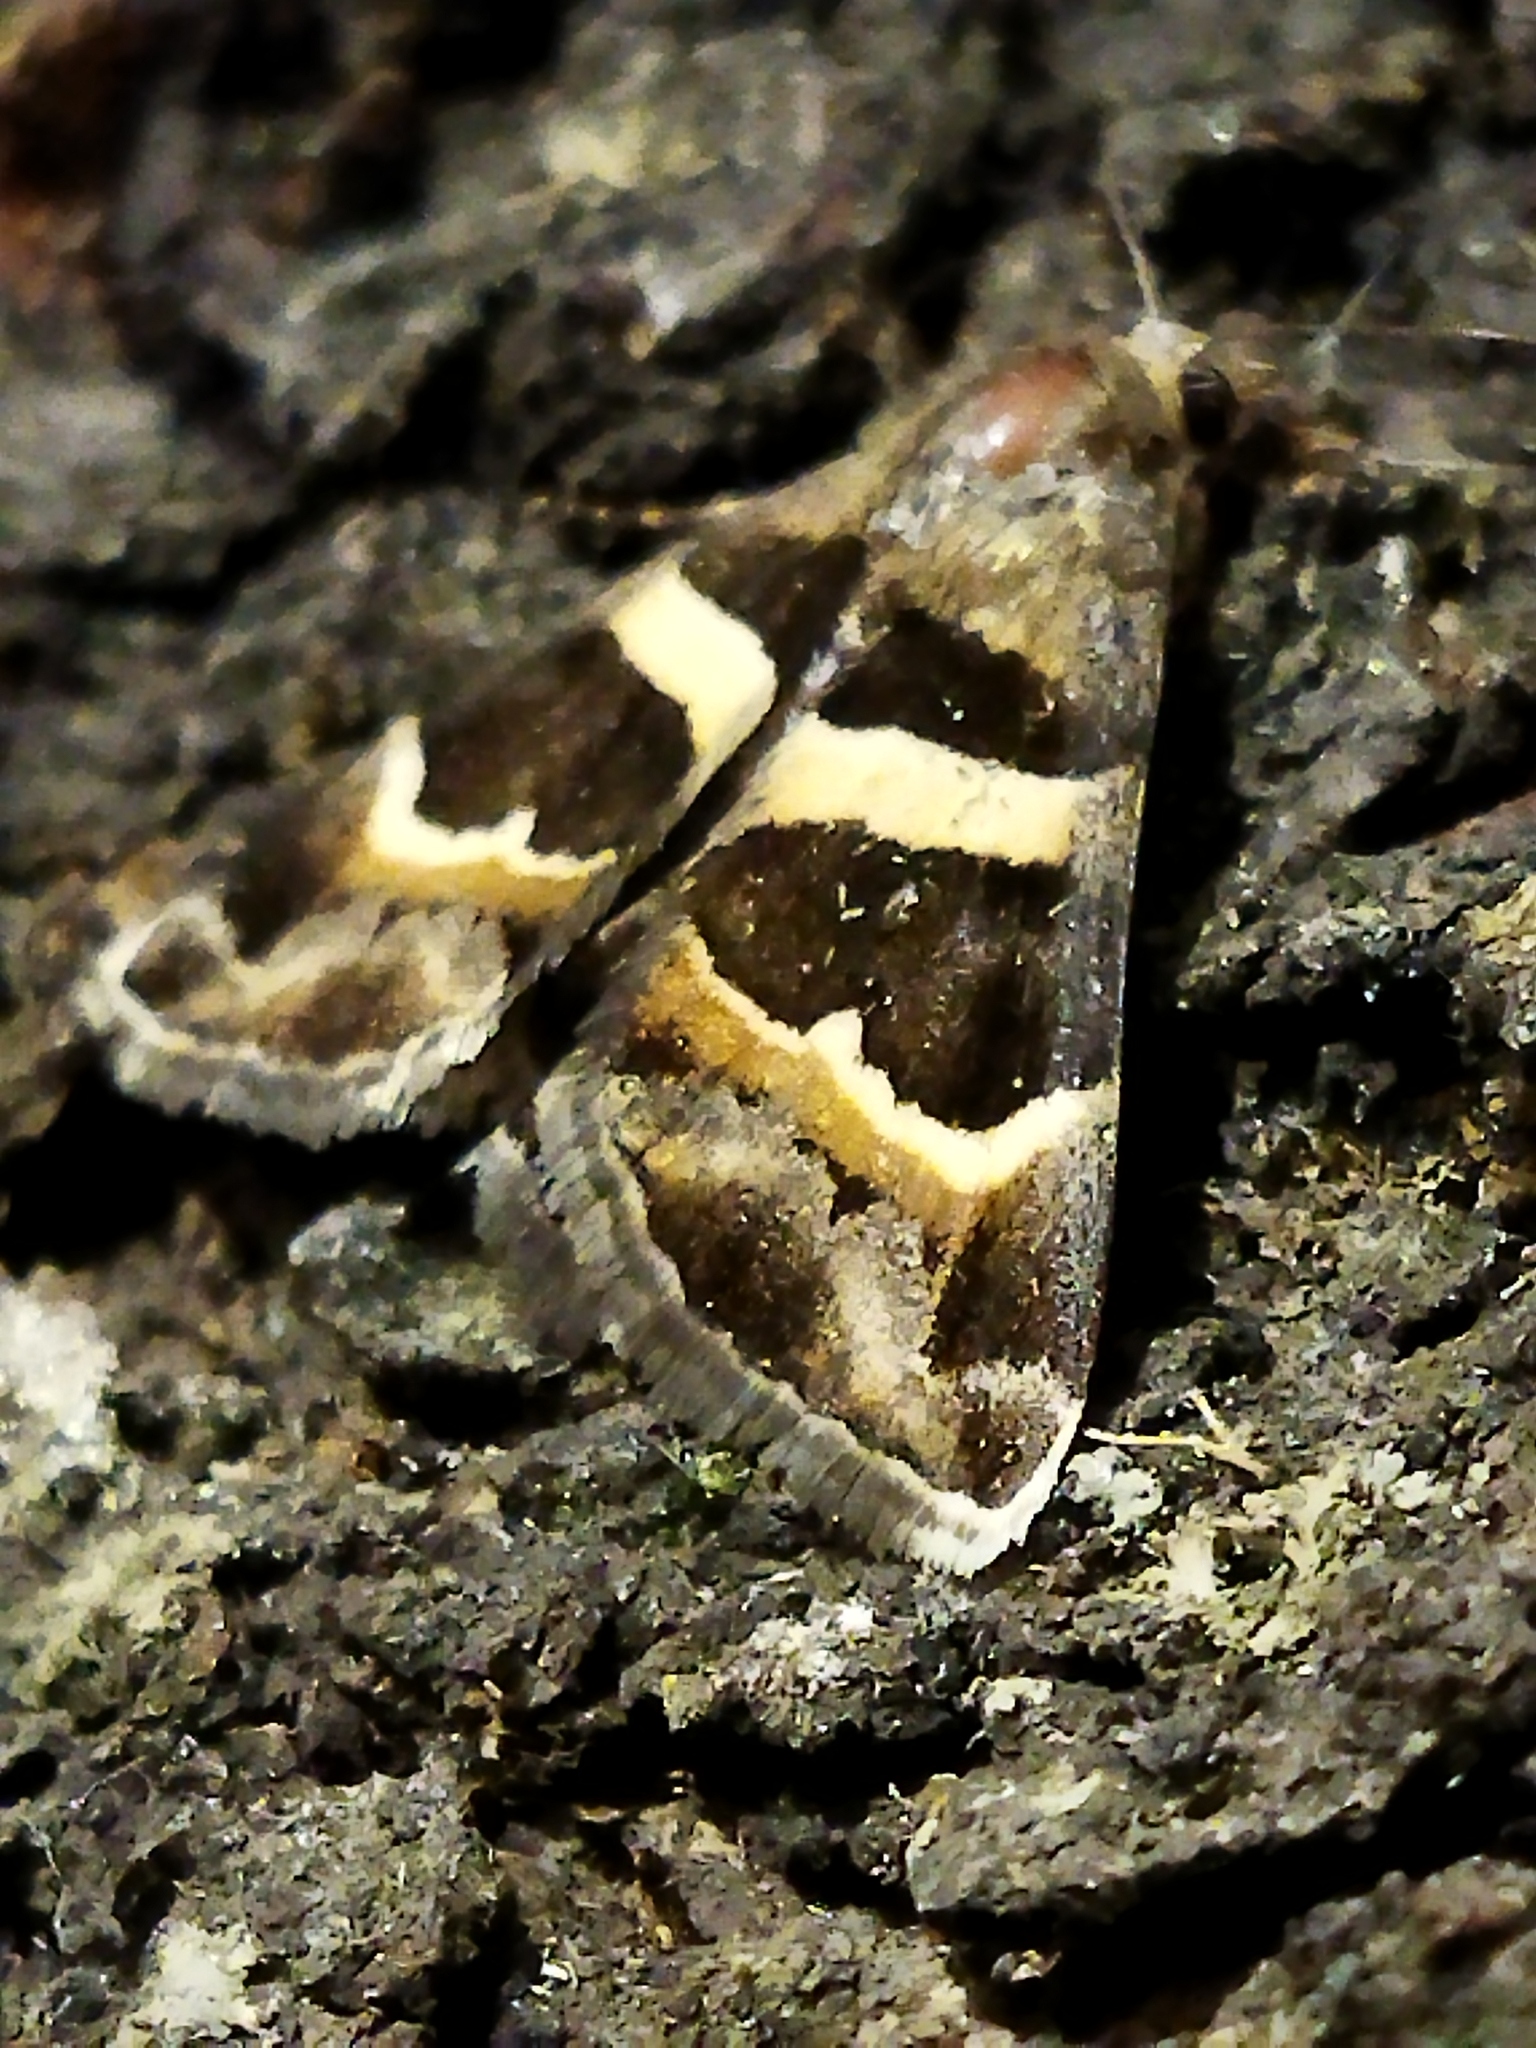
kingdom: Animalia
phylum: Arthropoda
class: Insecta
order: Lepidoptera
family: Erebidae
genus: Grammodes
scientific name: Grammodes stolida
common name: Geometrician
